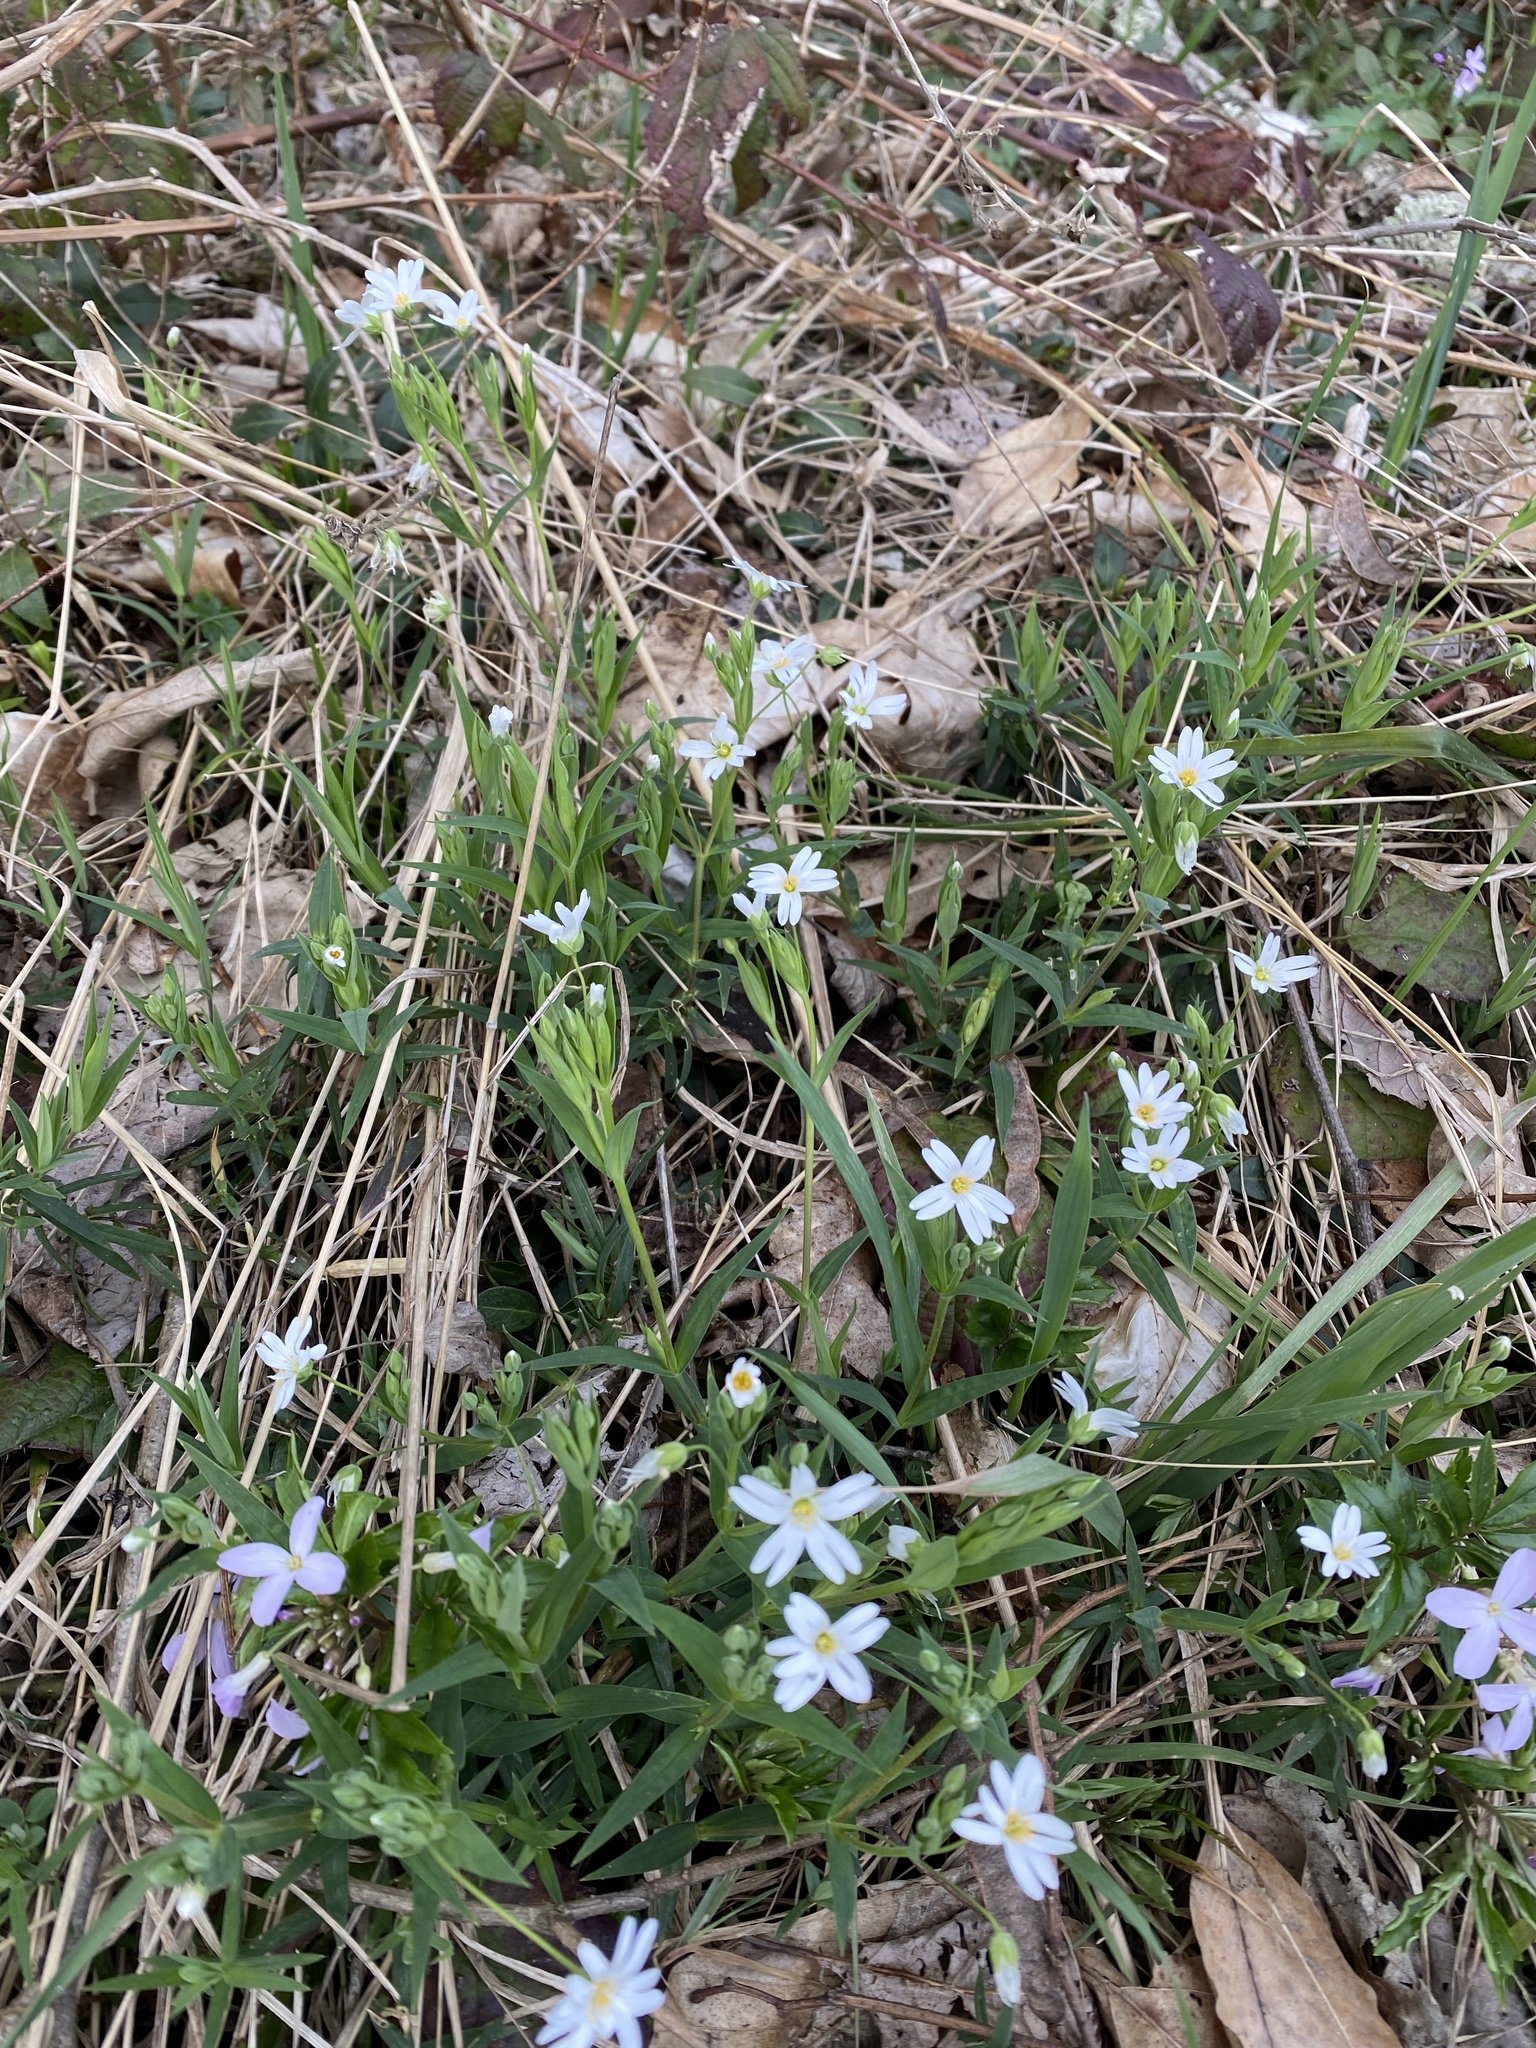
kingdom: Plantae
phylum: Tracheophyta
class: Magnoliopsida
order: Caryophyllales
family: Caryophyllaceae
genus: Rabelera
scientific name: Rabelera holostea
